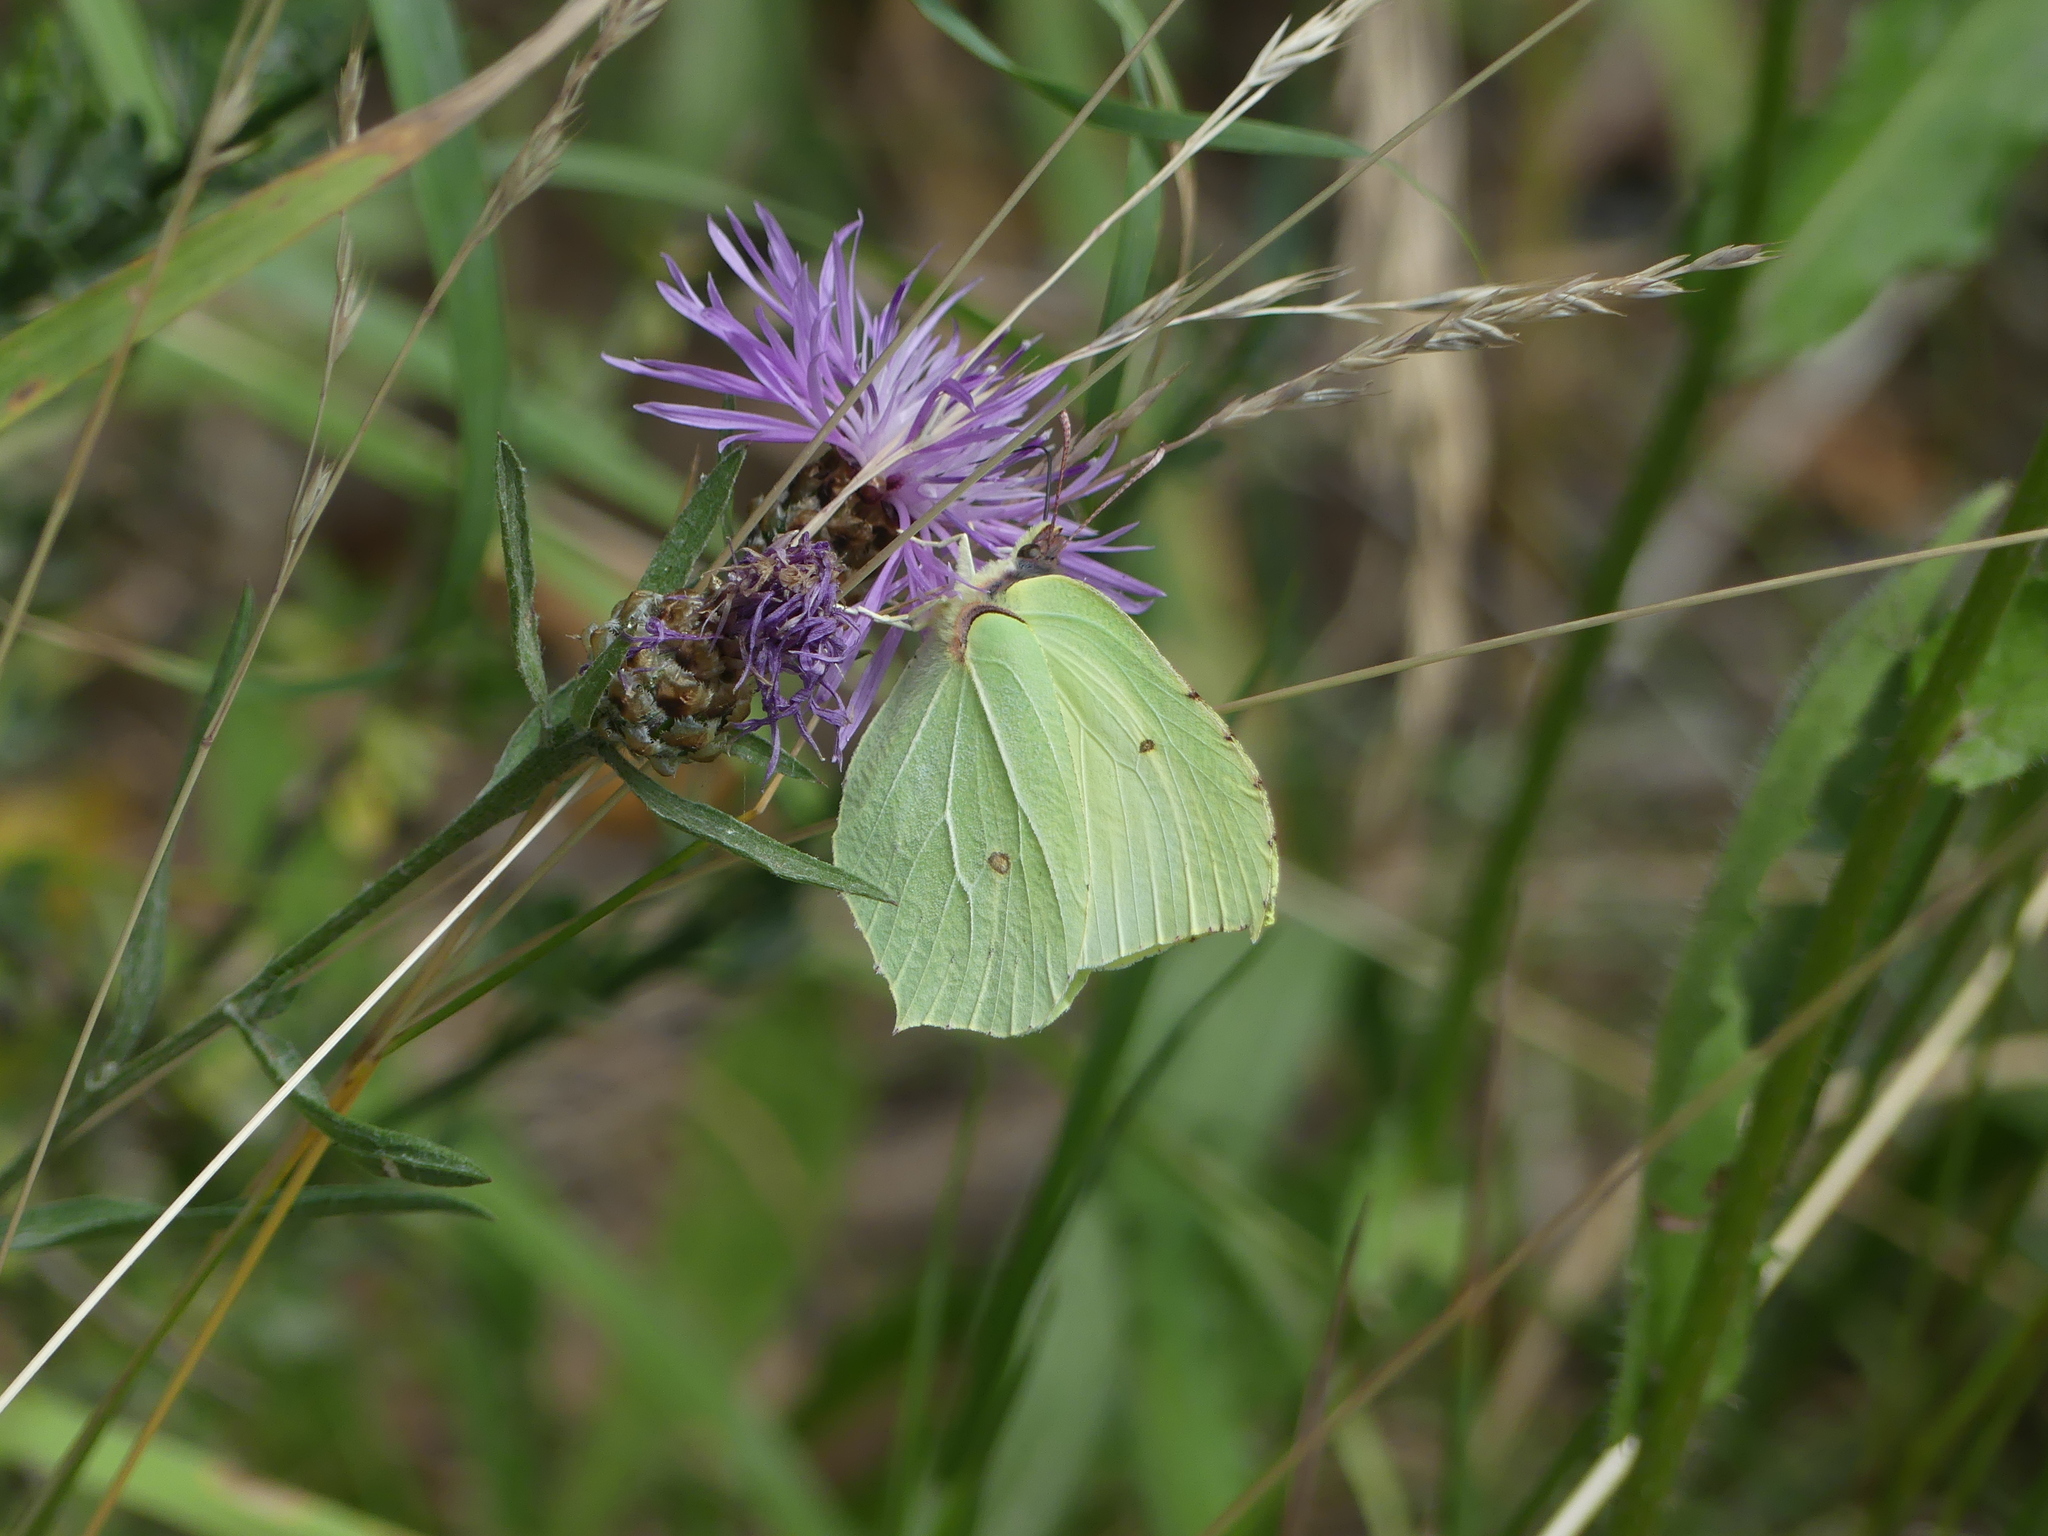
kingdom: Animalia
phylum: Arthropoda
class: Insecta
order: Lepidoptera
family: Pieridae
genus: Gonepteryx
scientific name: Gonepteryx rhamni
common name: Brimstone
